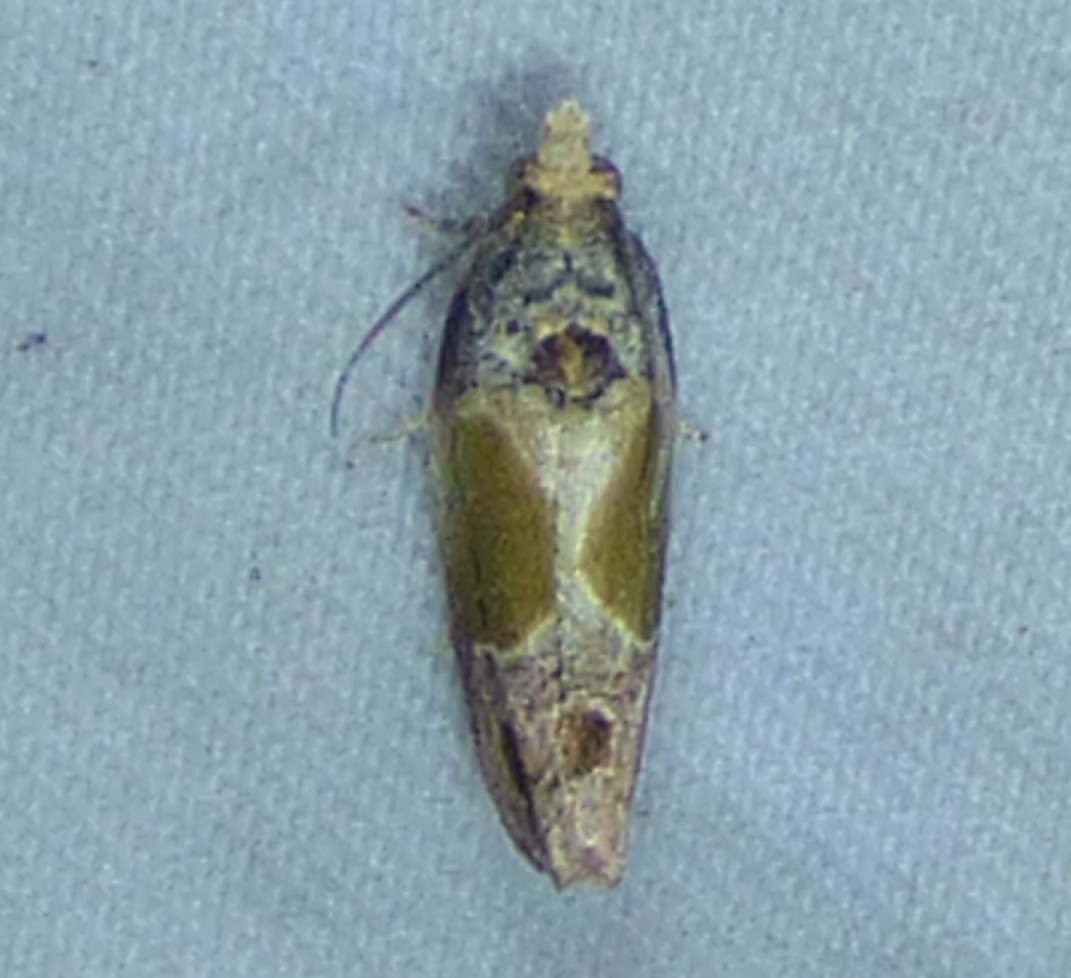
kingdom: Animalia
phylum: Arthropoda
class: Insecta
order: Lepidoptera
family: Tortricidae
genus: Eumarozia
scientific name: Eumarozia malachitana
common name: Sculptured moth
